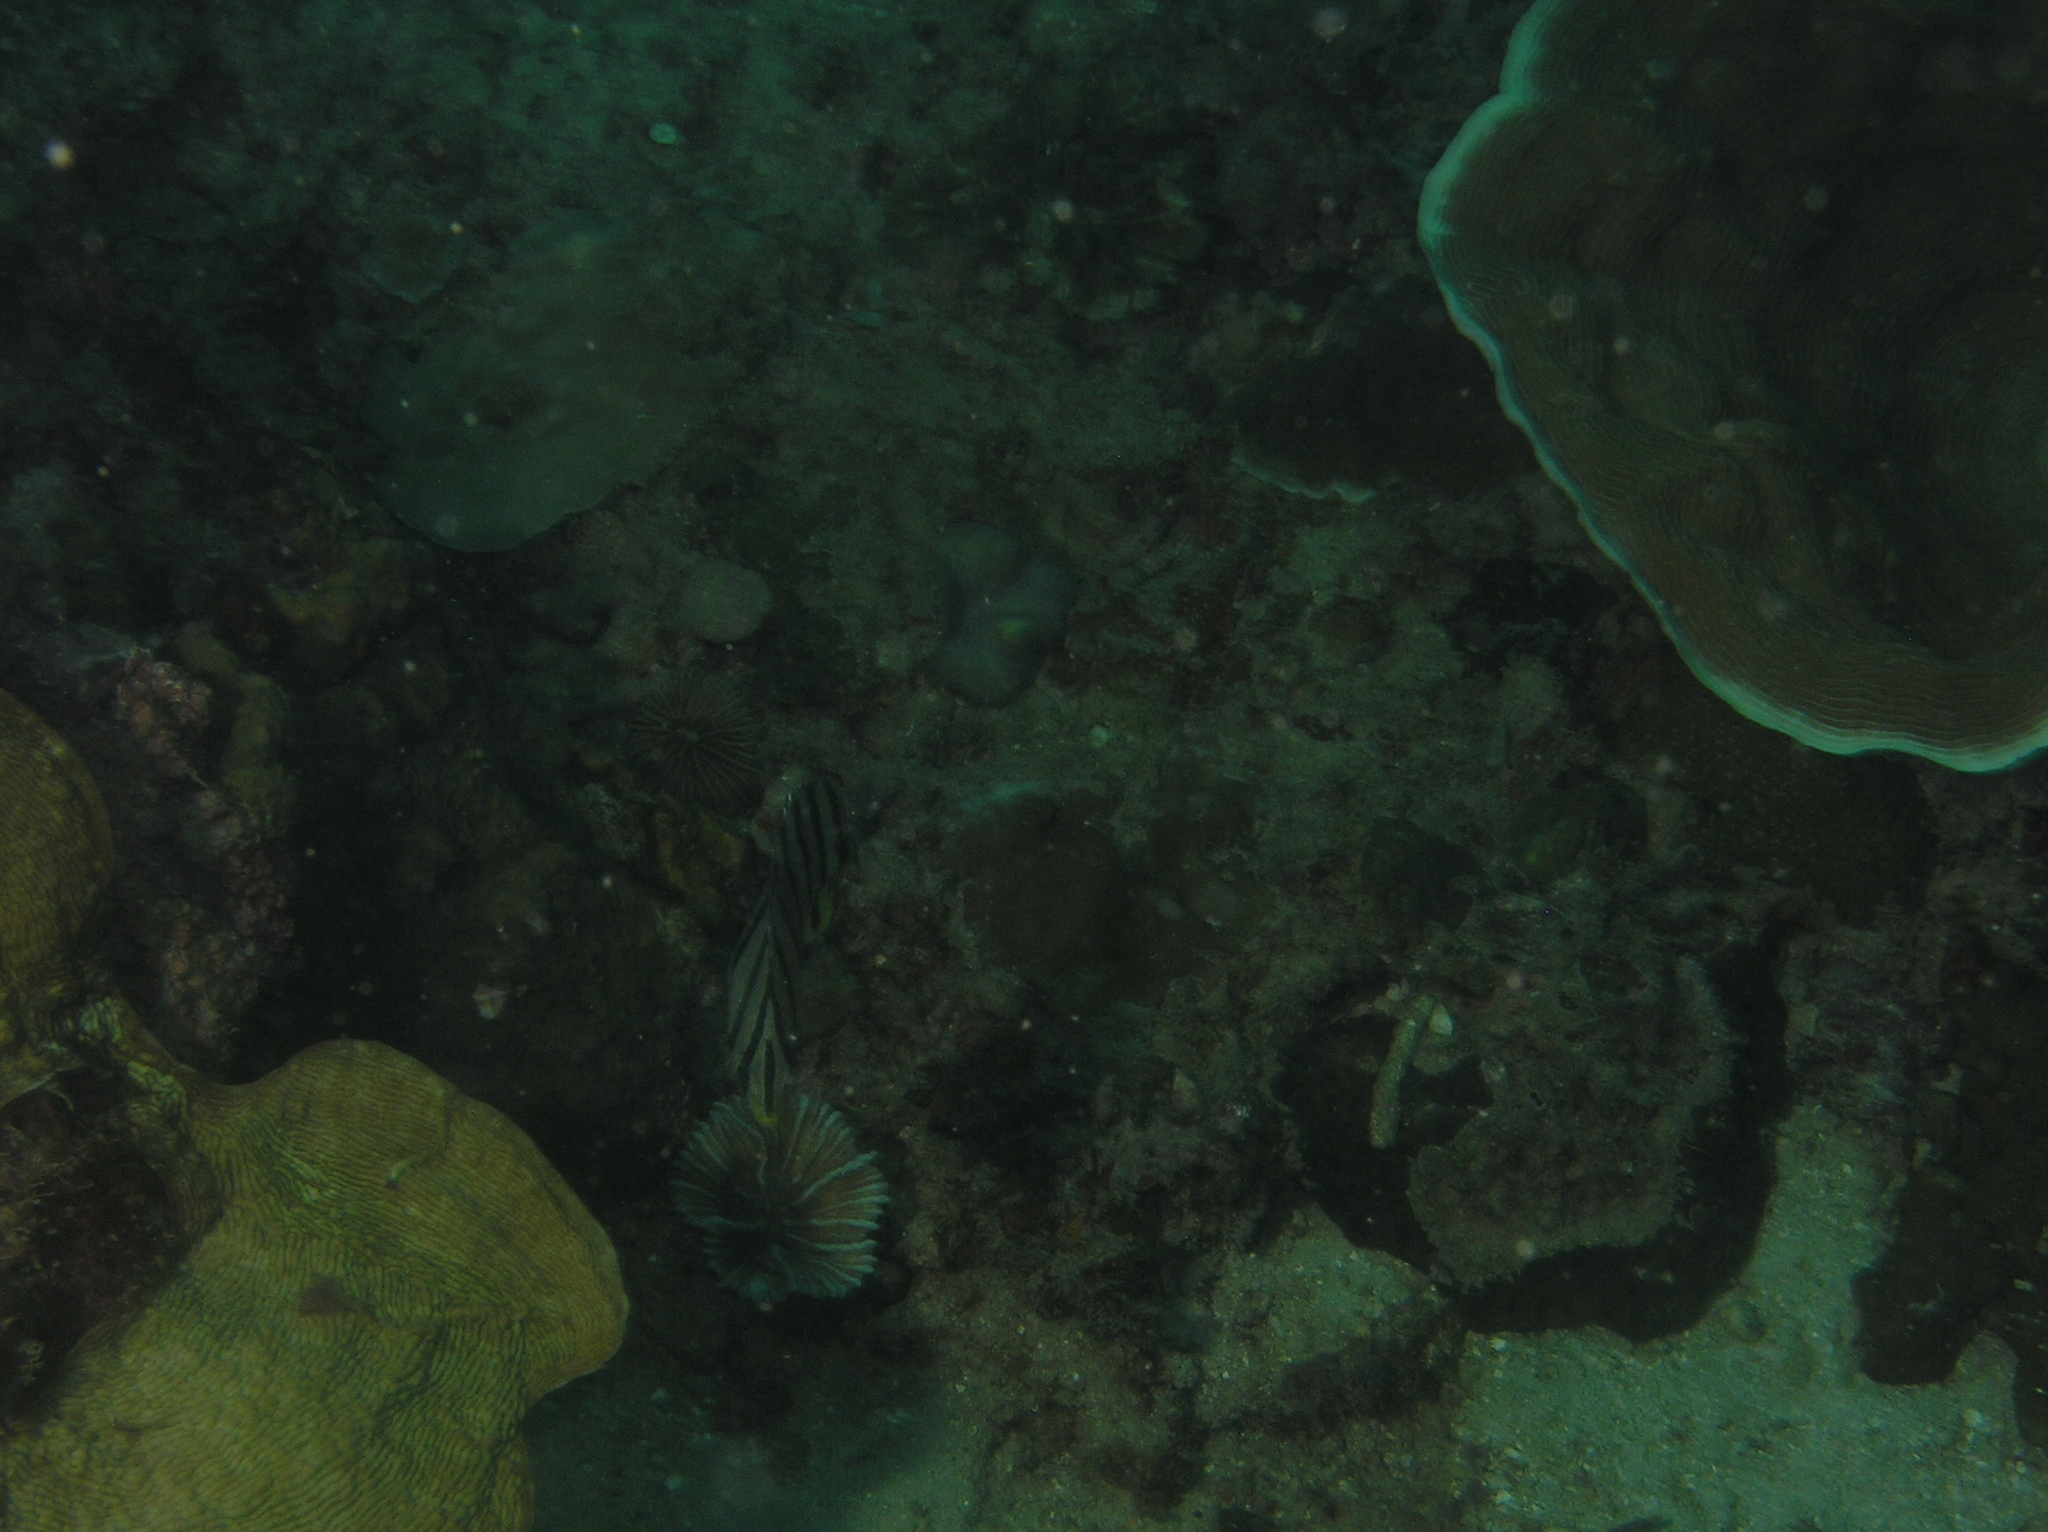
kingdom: Animalia
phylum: Chordata
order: Perciformes
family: Chaetodontidae
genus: Chaetodon
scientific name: Chaetodon octofasciatus
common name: Eightband butterflyfish
